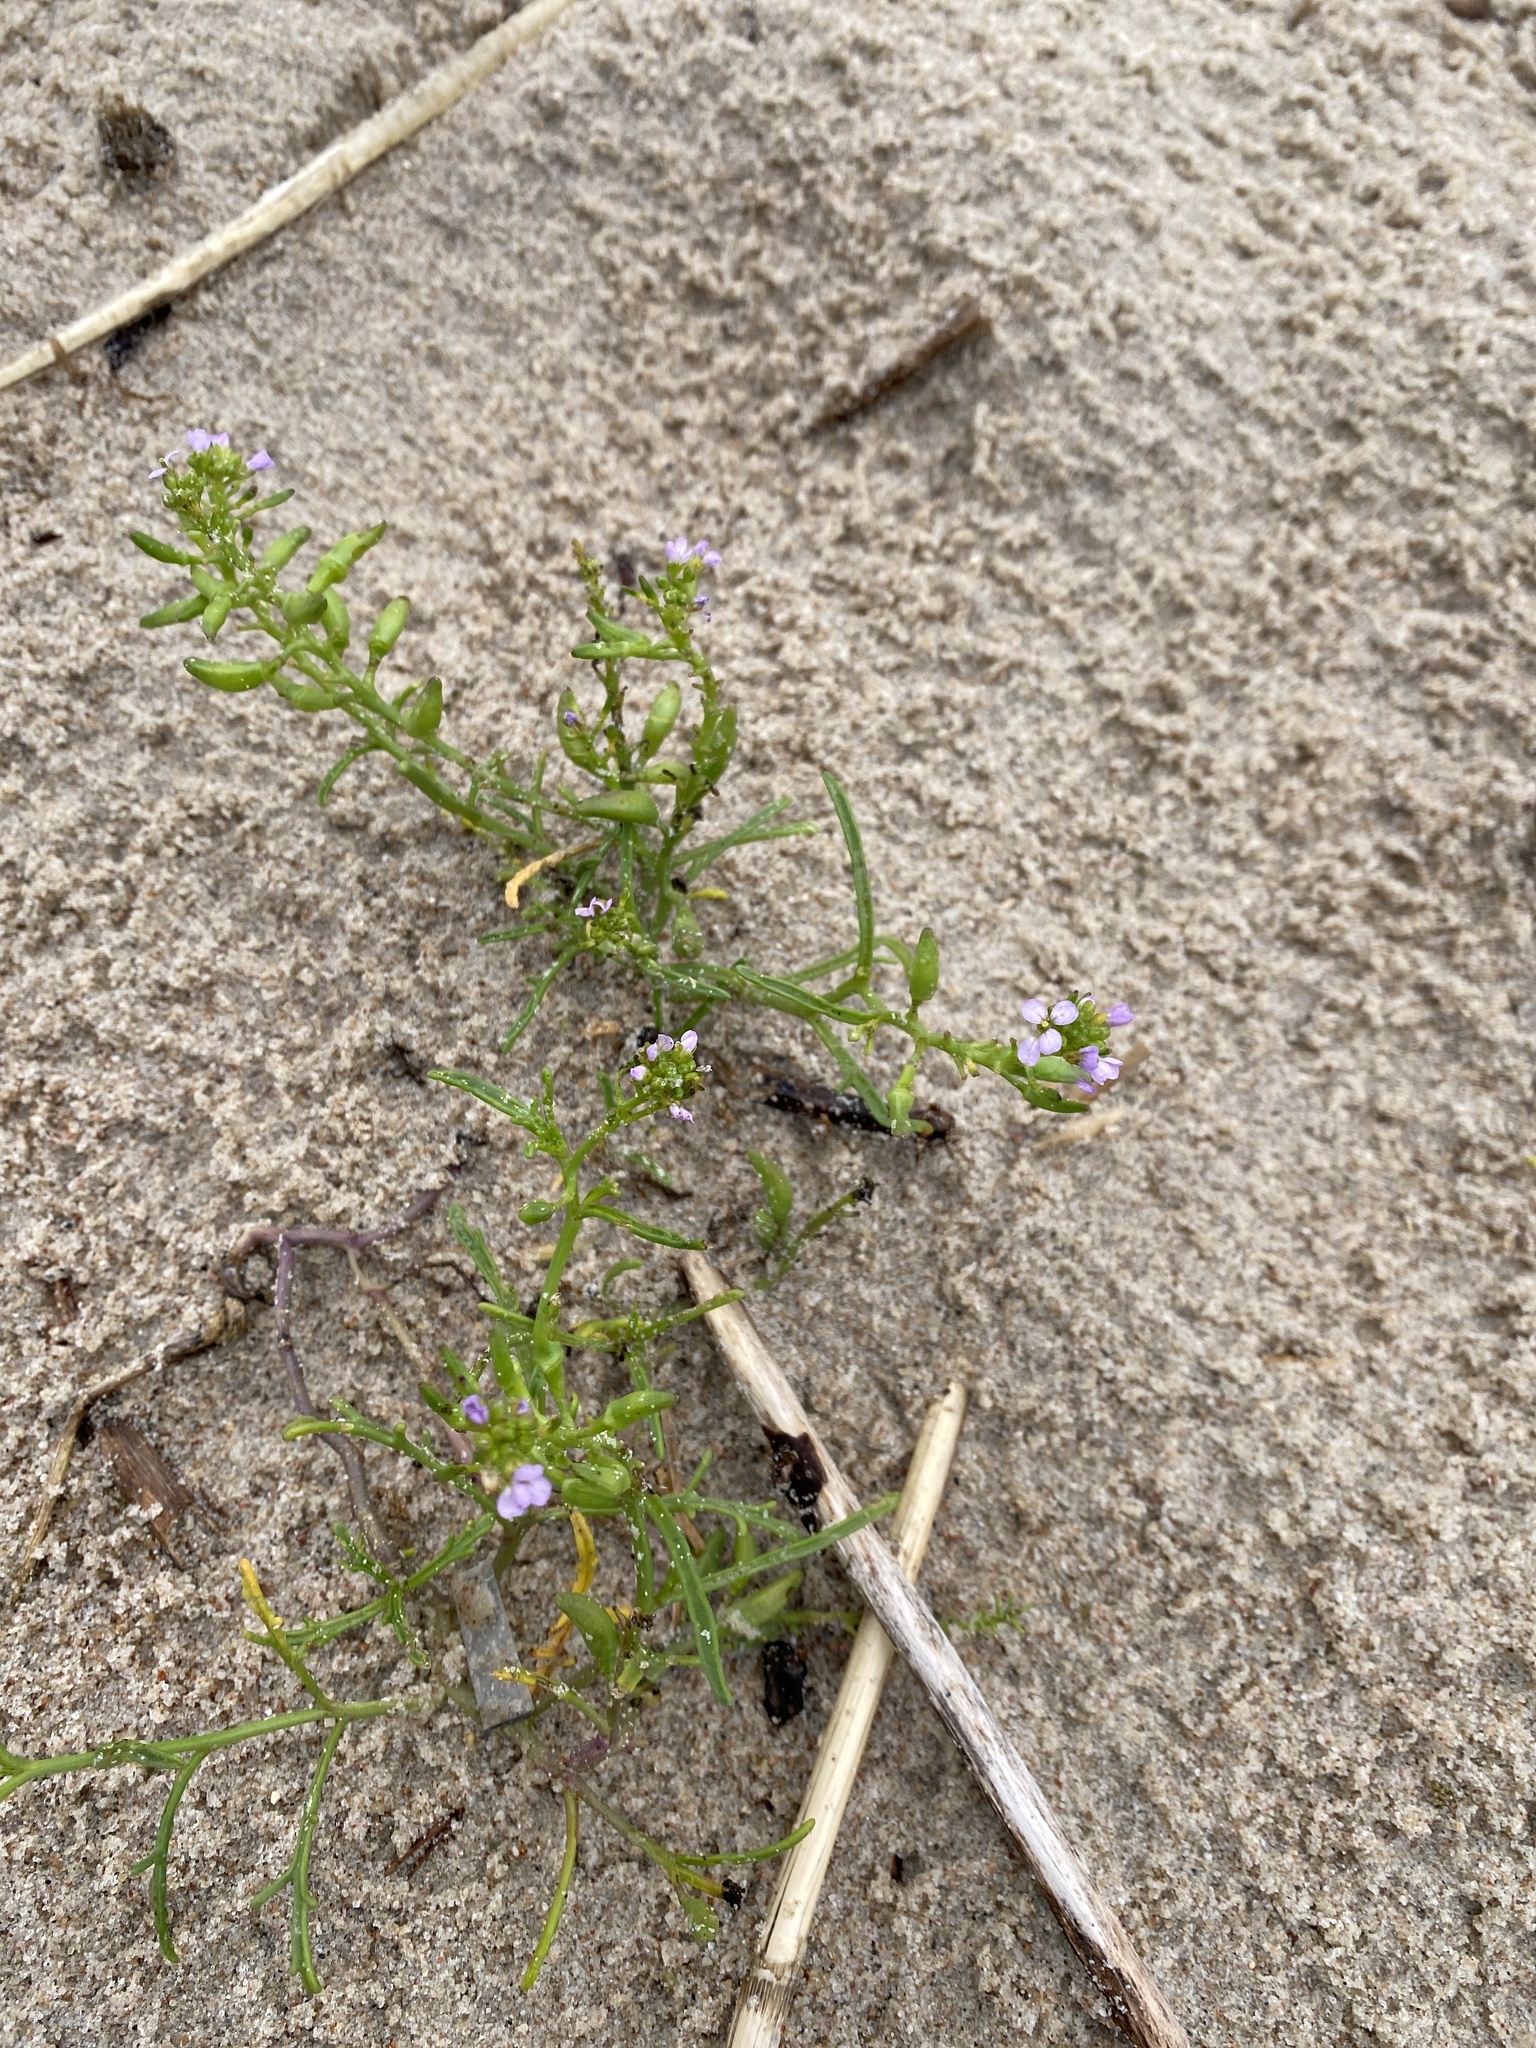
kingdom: Plantae
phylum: Tracheophyta
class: Magnoliopsida
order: Brassicales
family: Brassicaceae
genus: Cakile
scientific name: Cakile maritima
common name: Sea rocket
